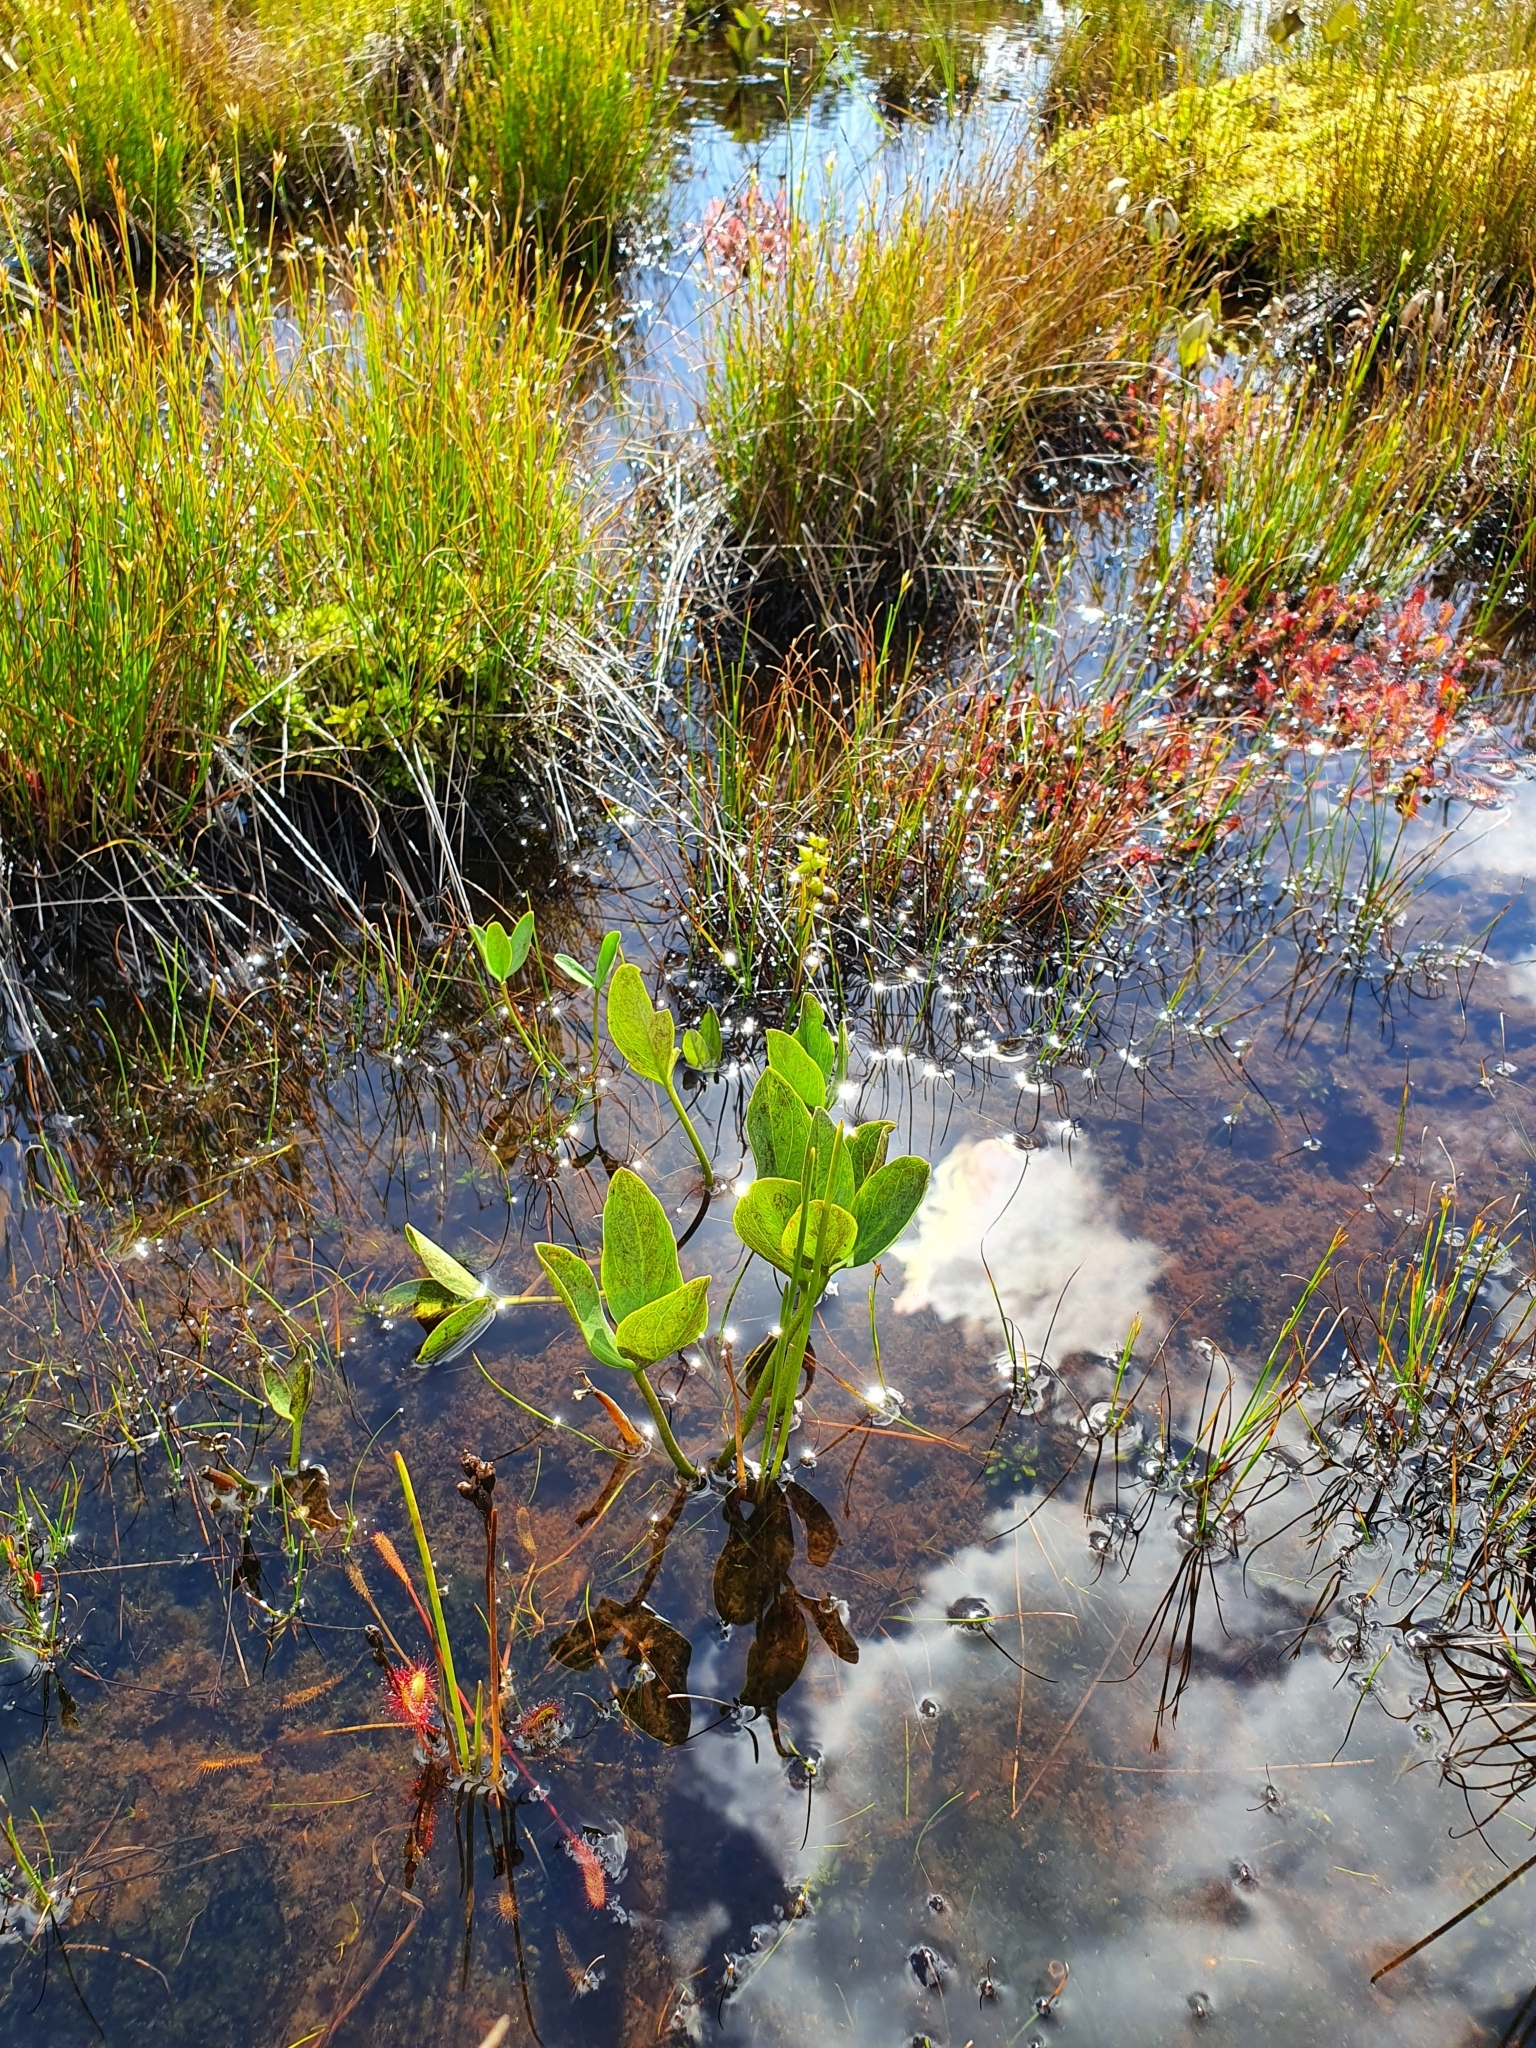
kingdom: Plantae
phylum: Tracheophyta
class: Magnoliopsida
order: Asterales
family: Menyanthaceae
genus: Menyanthes
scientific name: Menyanthes trifoliata
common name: Bogbean
